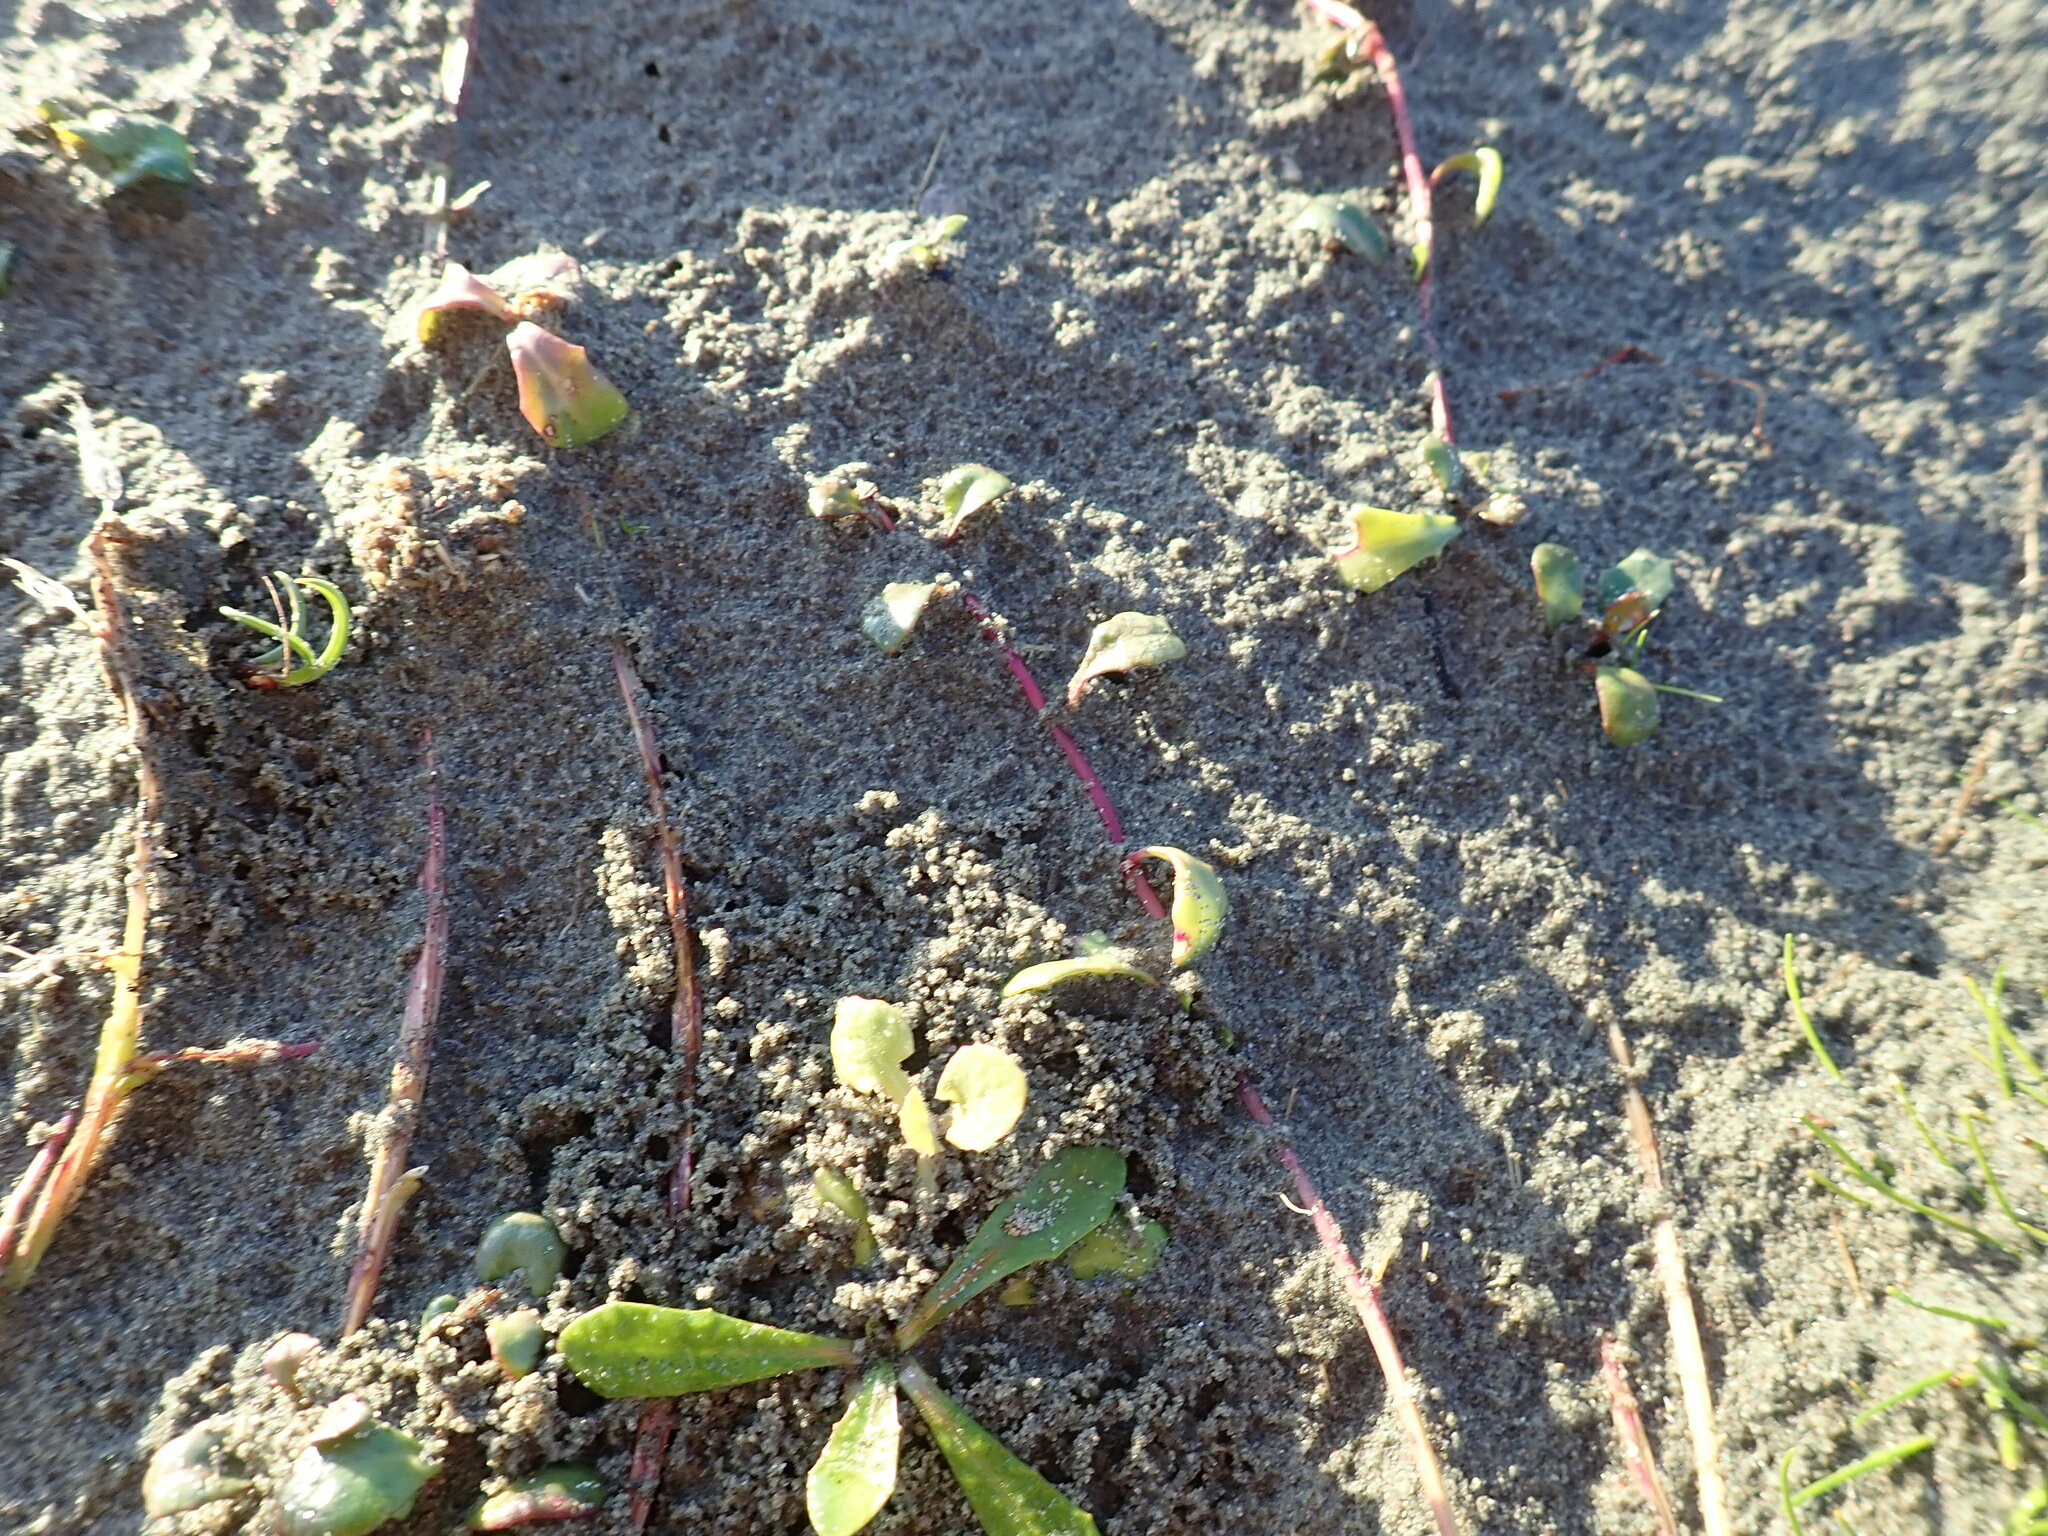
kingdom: Plantae
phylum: Tracheophyta
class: Magnoliopsida
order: Asterales
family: Campanulaceae
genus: Lobelia
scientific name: Lobelia anceps
